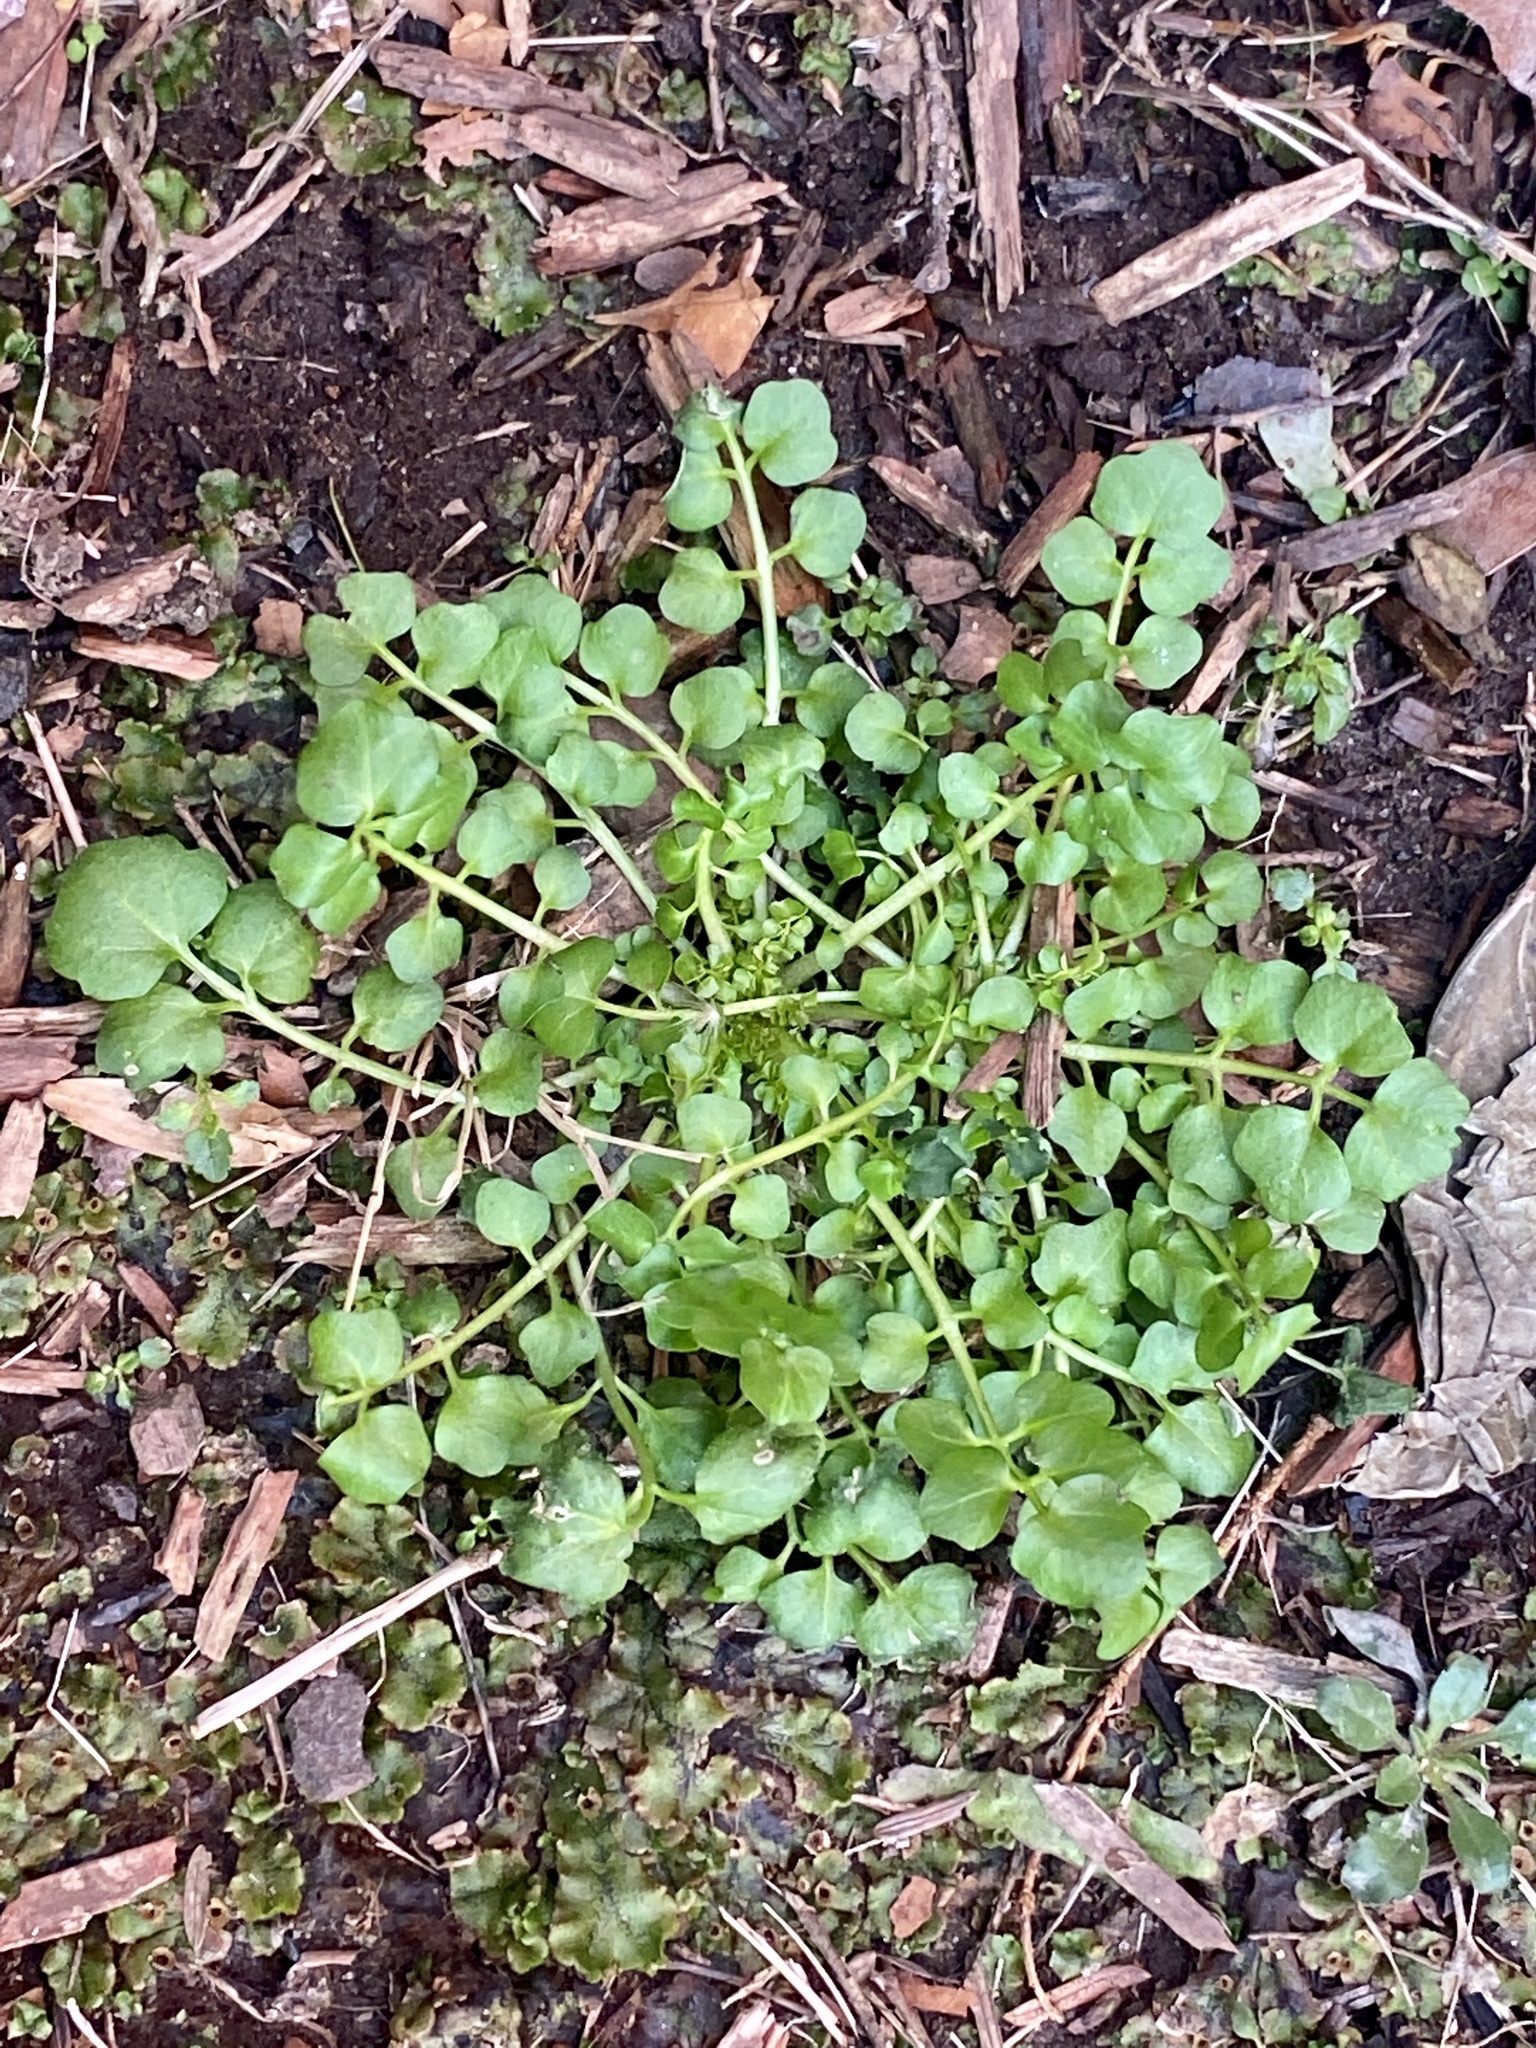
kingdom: Plantae
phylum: Tracheophyta
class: Magnoliopsida
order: Brassicales
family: Brassicaceae
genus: Cardamine
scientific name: Cardamine hirsuta
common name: Hairy bittercress
